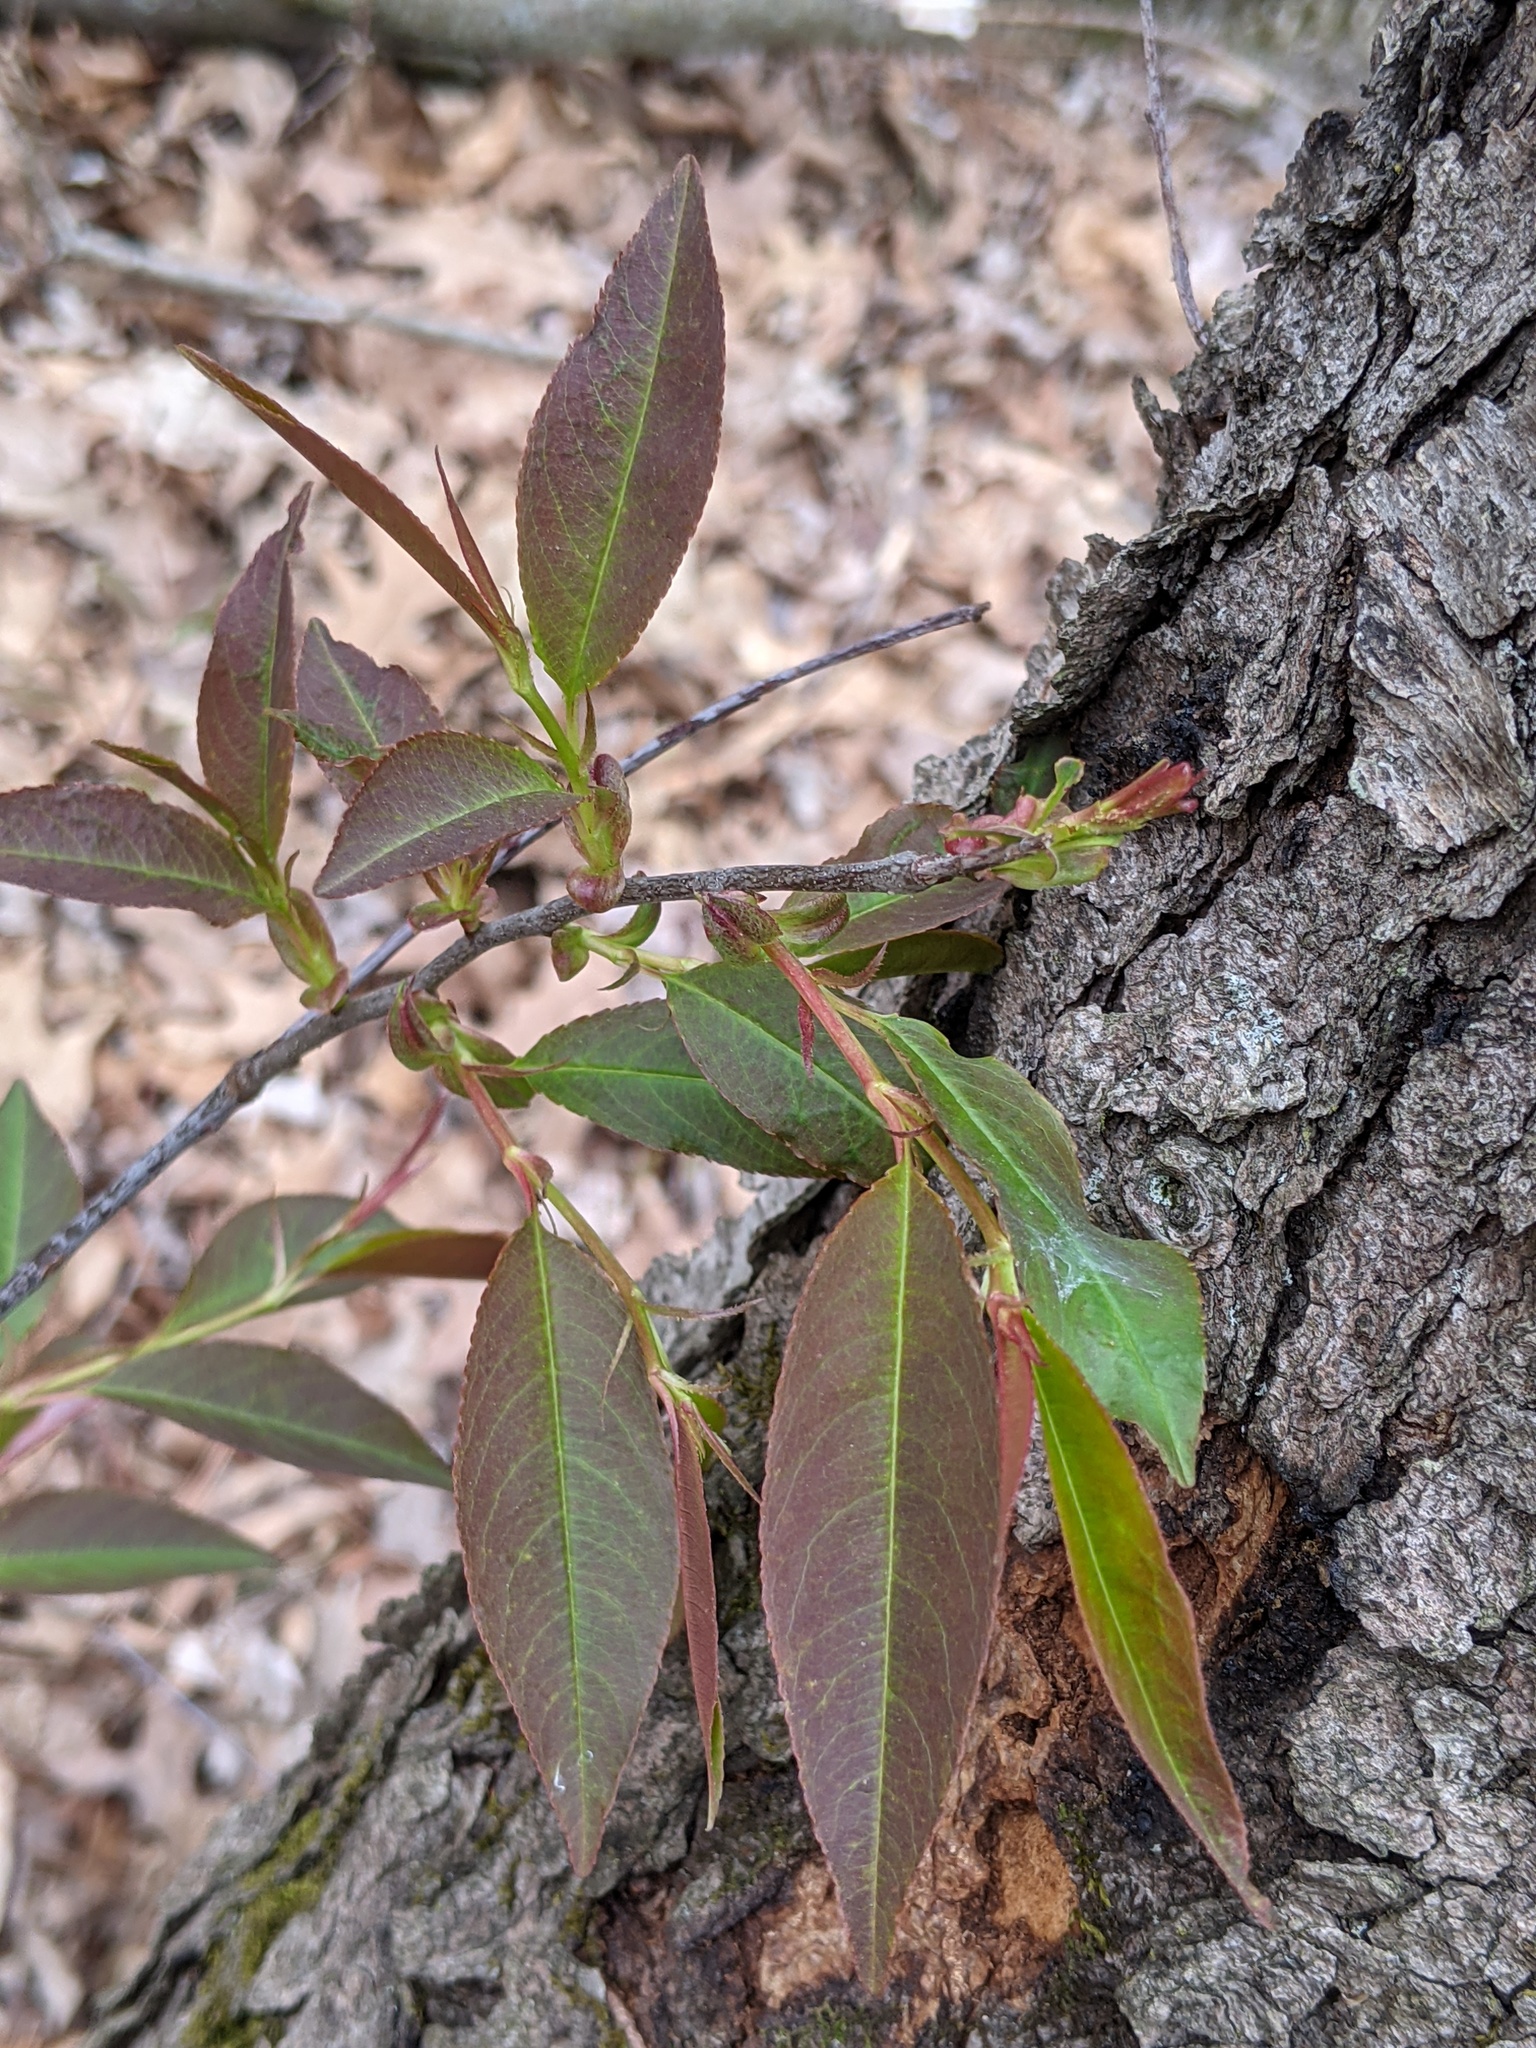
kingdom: Plantae
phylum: Tracheophyta
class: Magnoliopsida
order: Rosales
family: Rosaceae
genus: Prunus
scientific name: Prunus serotina
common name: Black cherry
